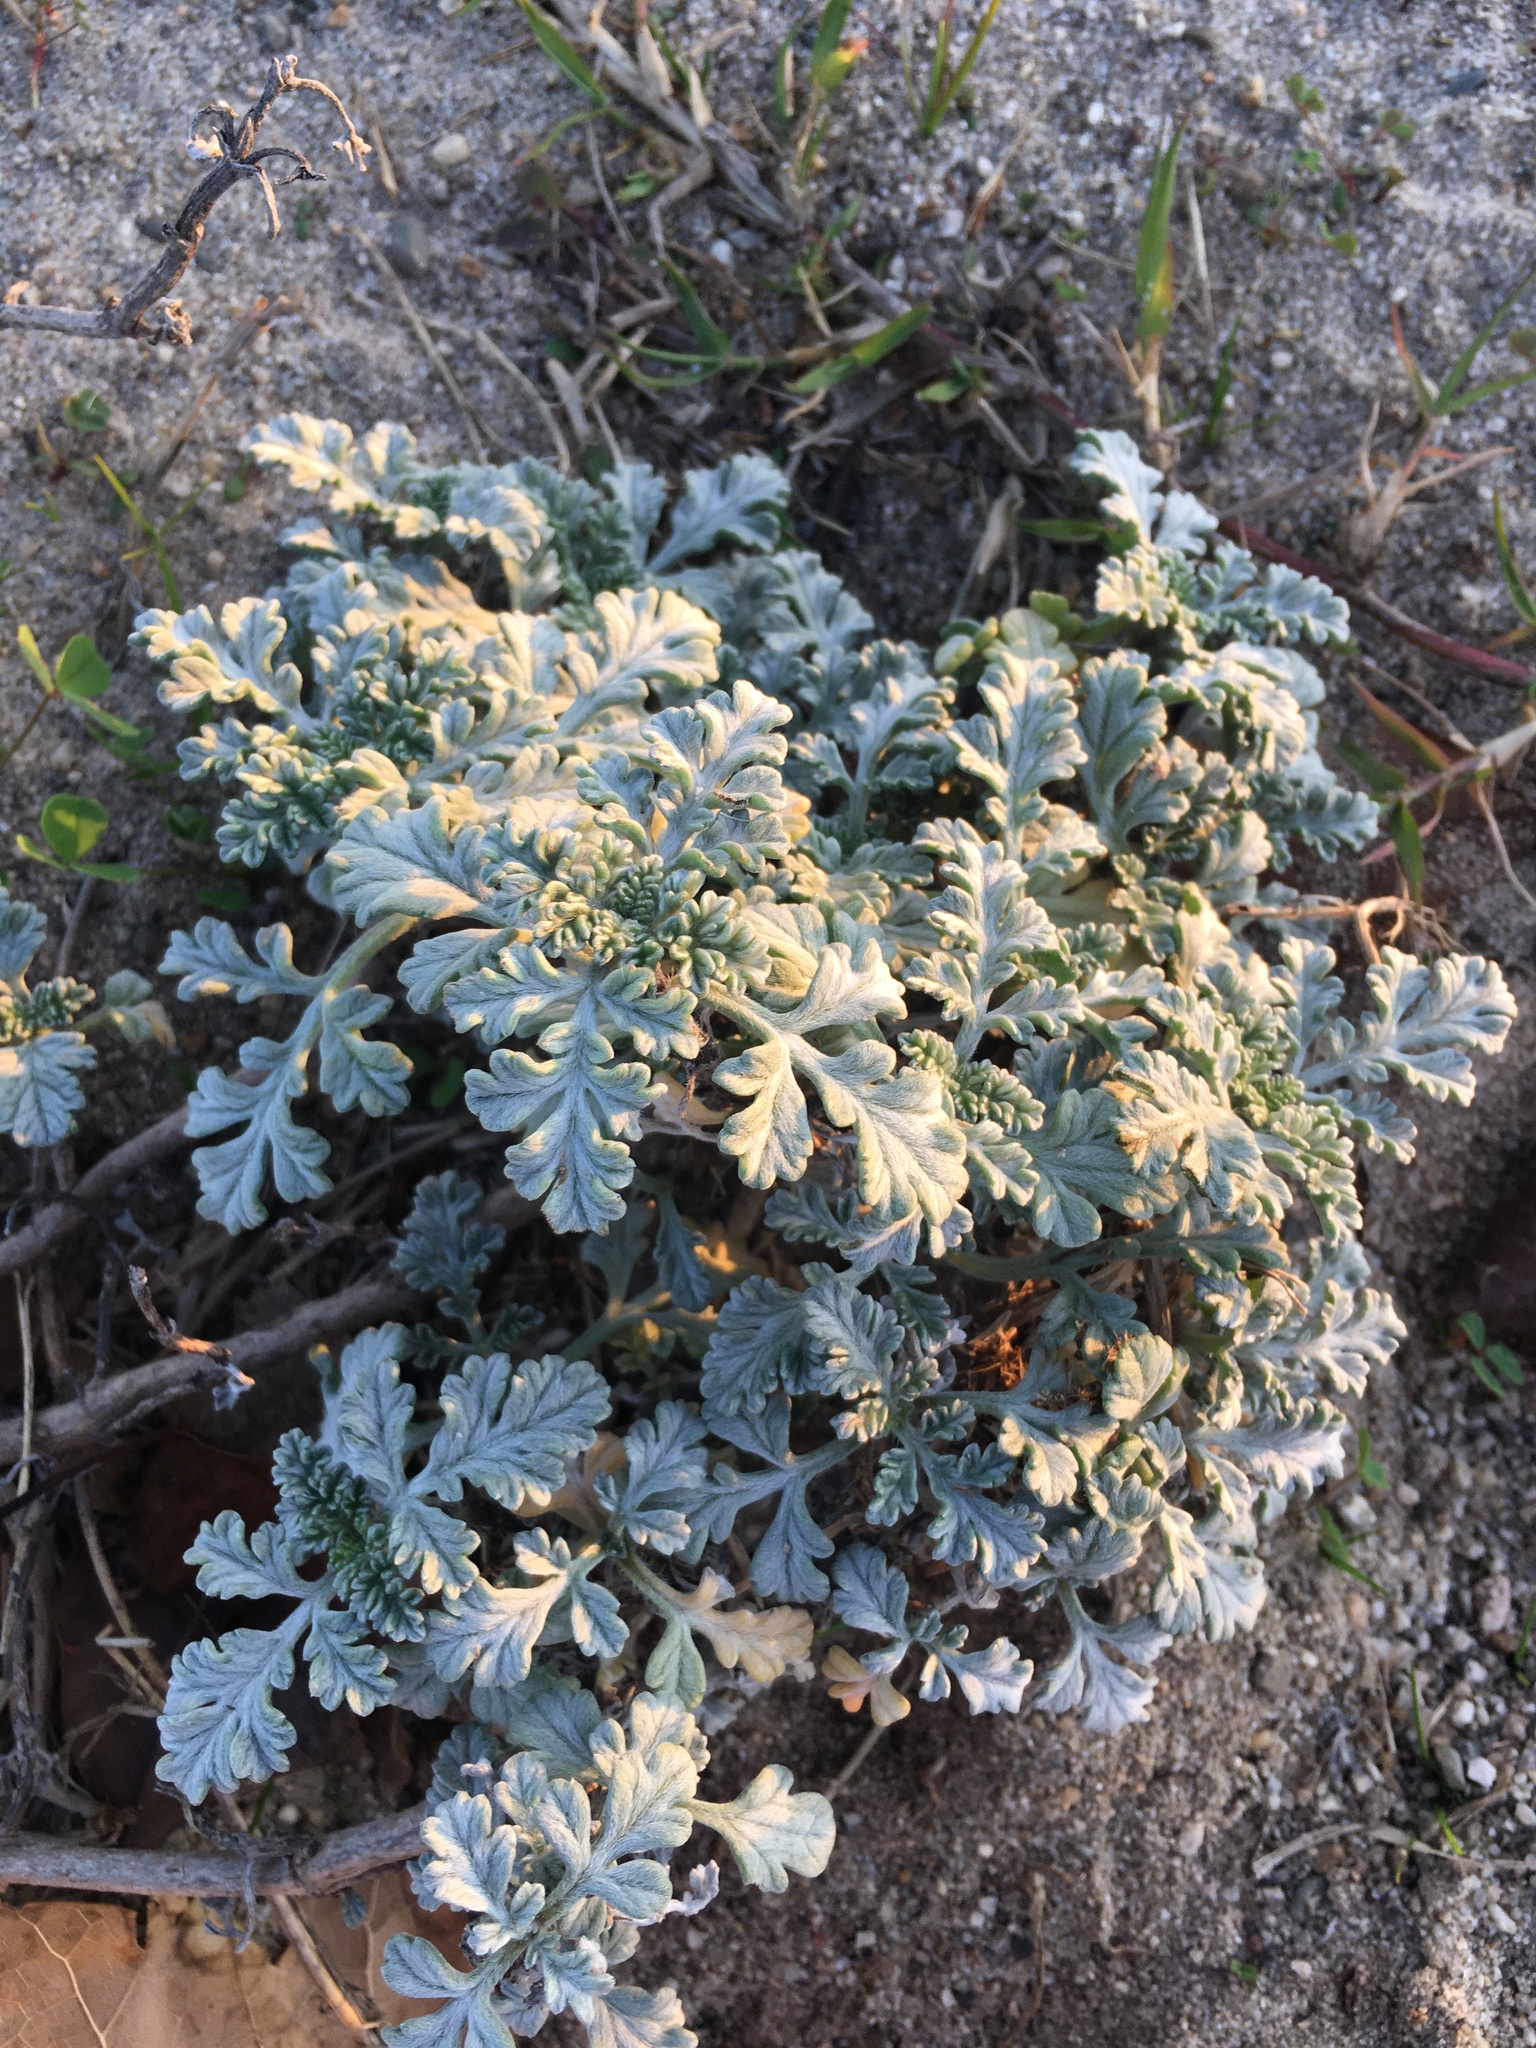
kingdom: Plantae
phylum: Tracheophyta
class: Magnoliopsida
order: Asterales
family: Asteraceae
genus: Ambrosia
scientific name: Ambrosia chamissonis
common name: Beachbur
